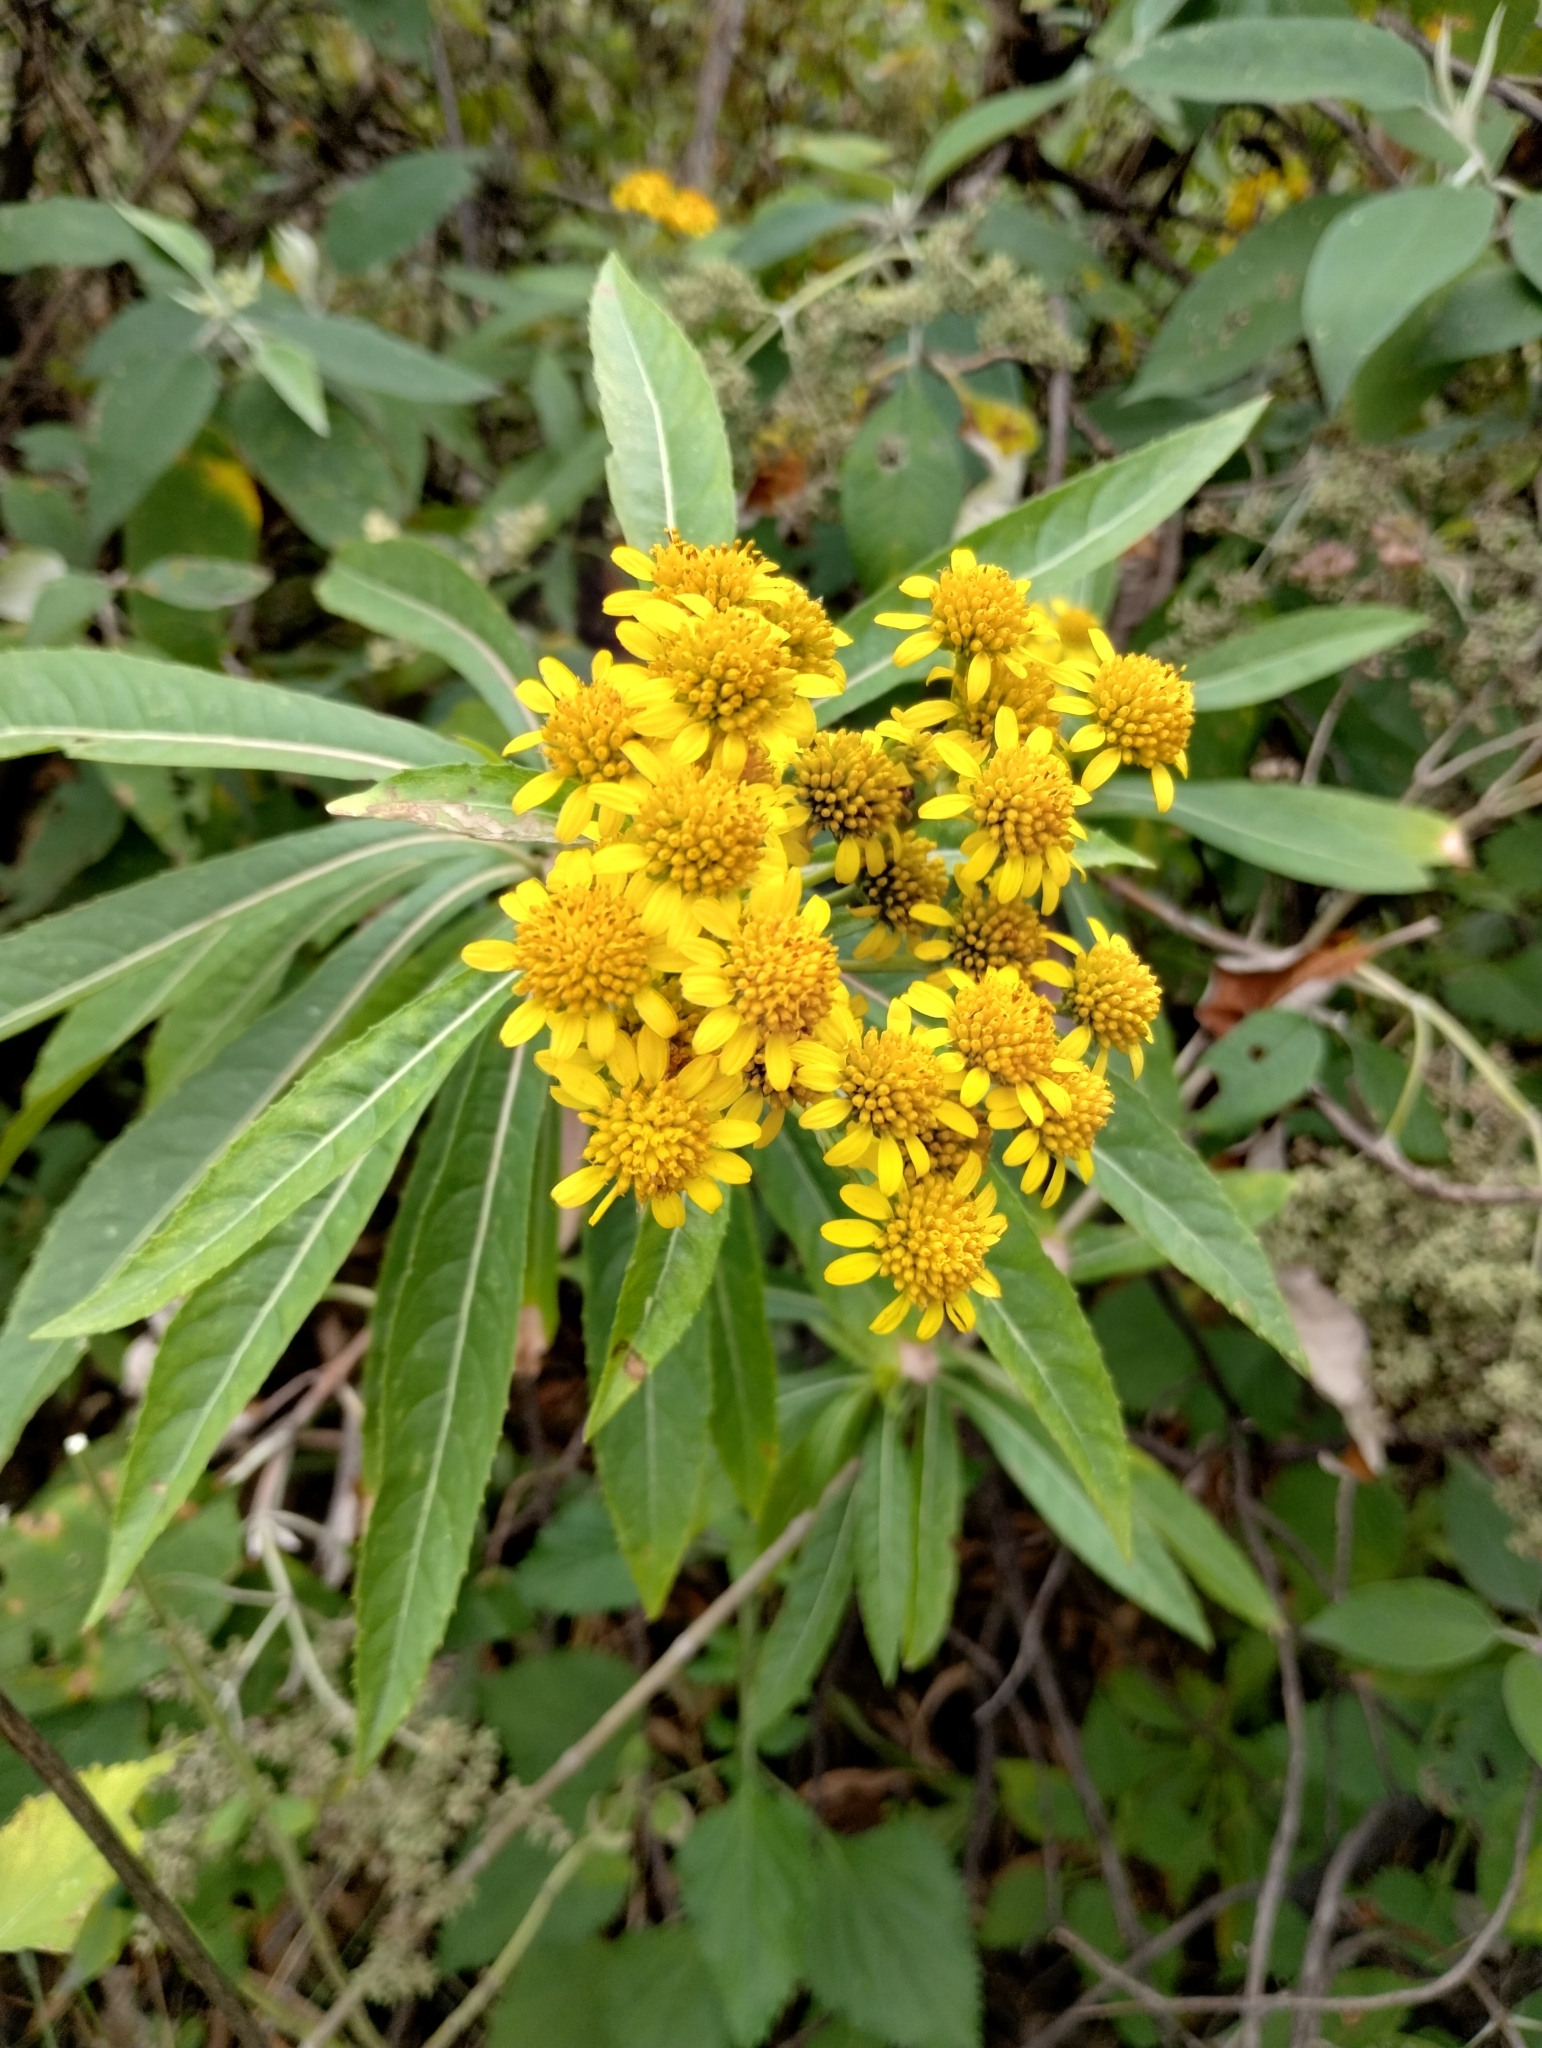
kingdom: Plantae
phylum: Tracheophyta
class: Magnoliopsida
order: Asterales
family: Asteraceae
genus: Verbesina
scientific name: Verbesina virgata
